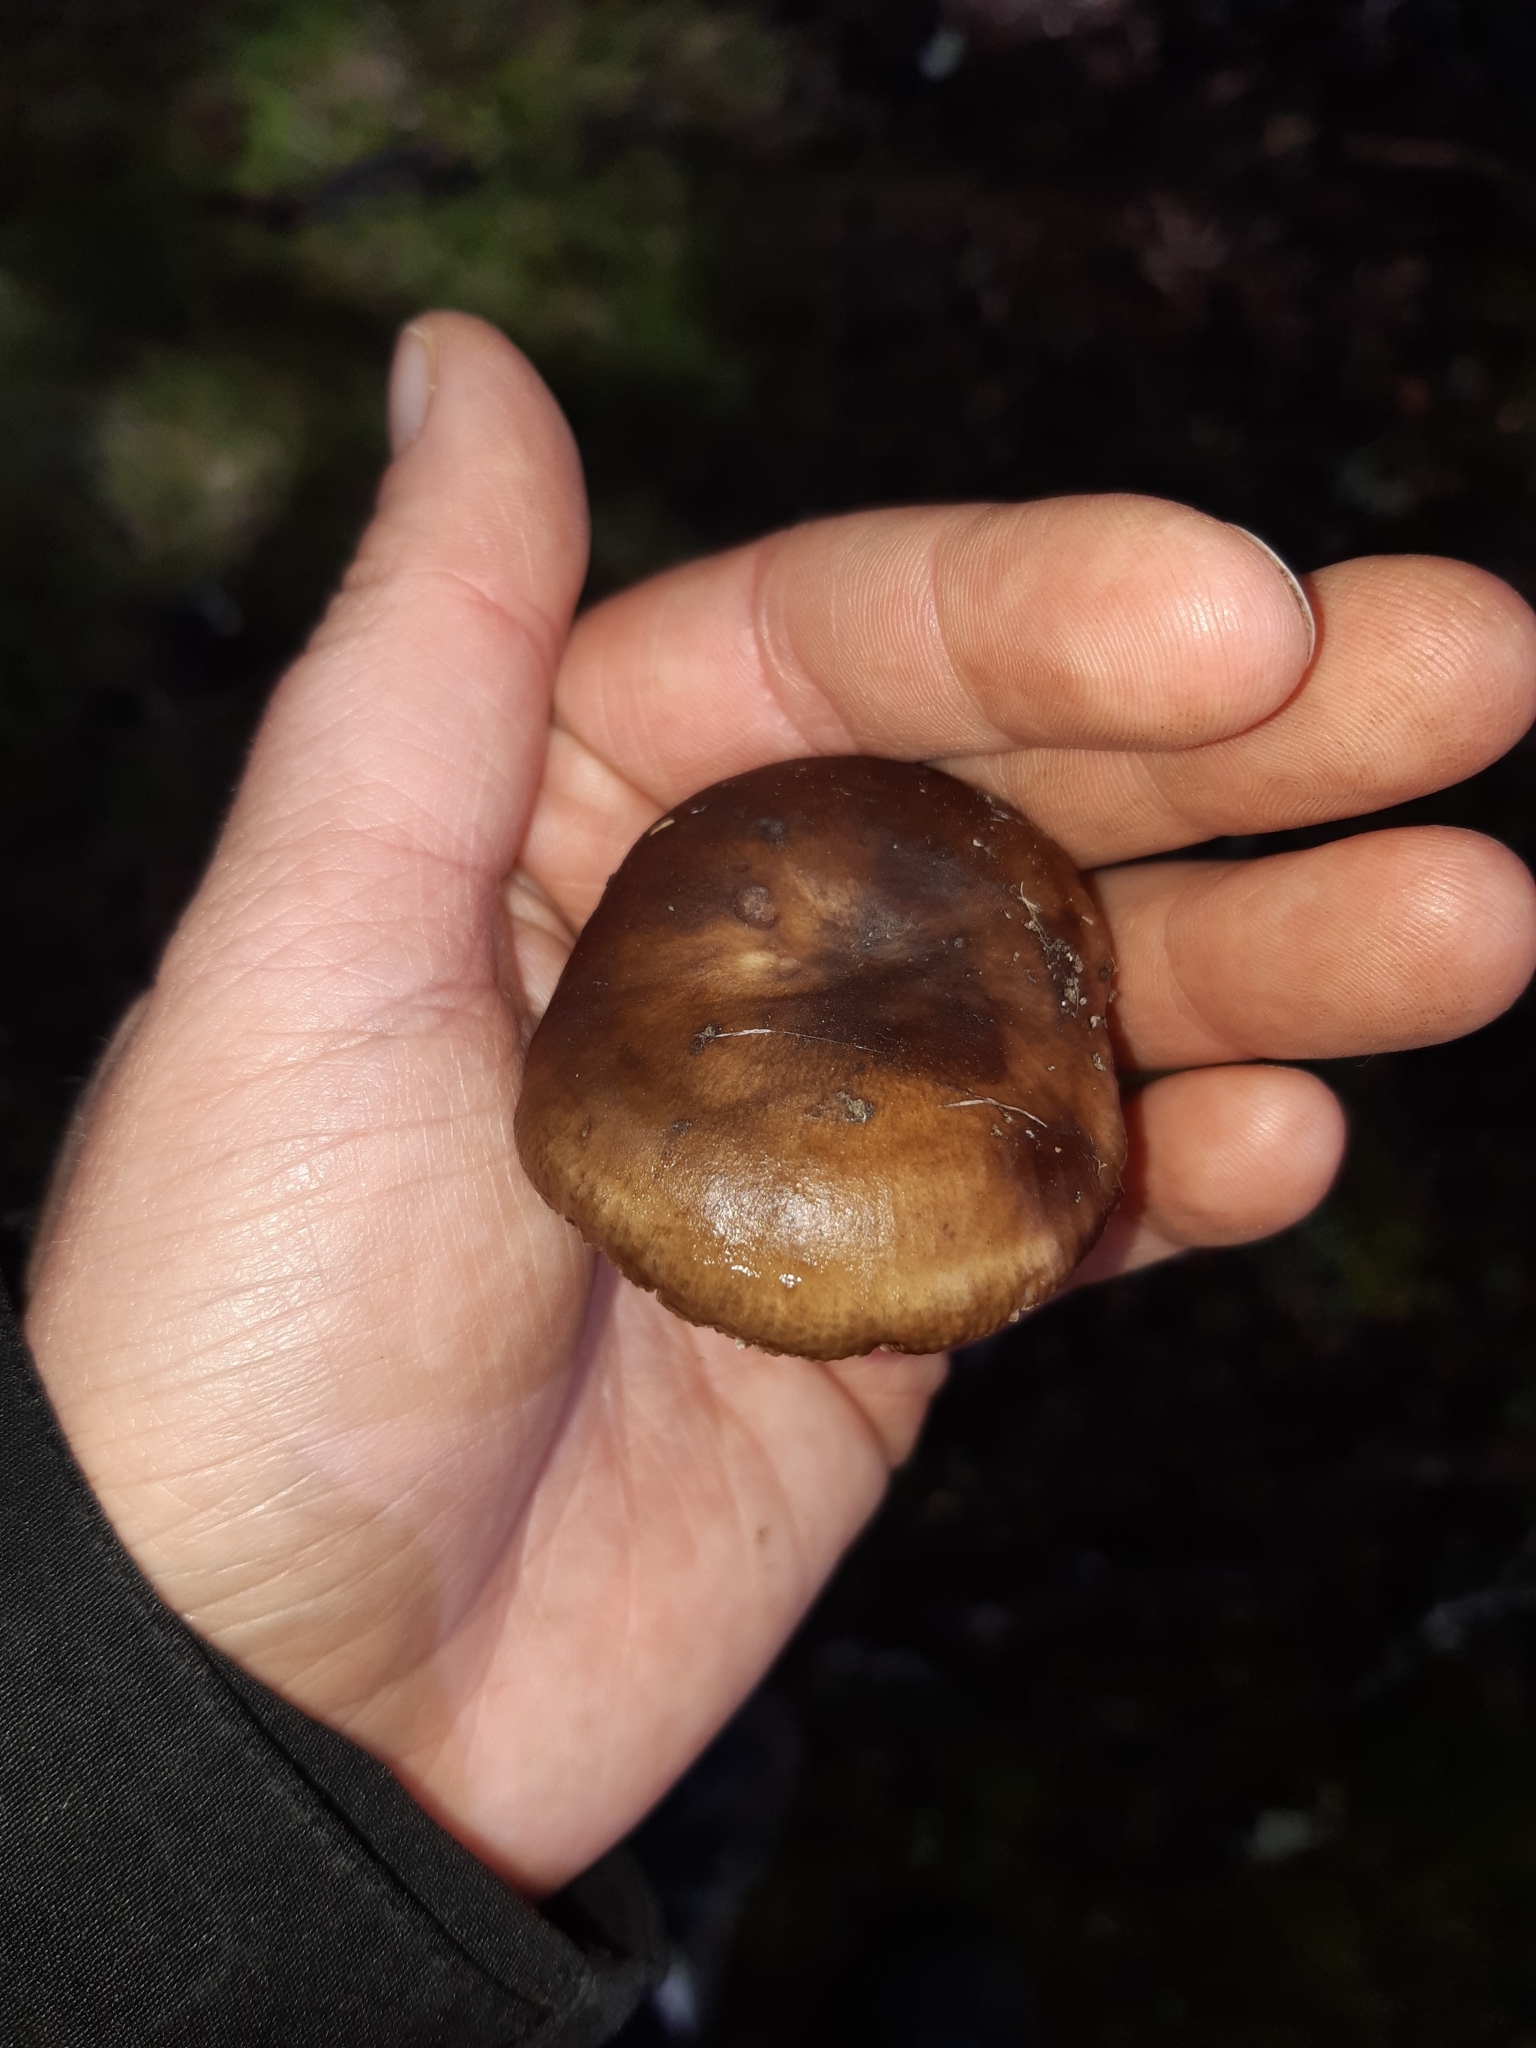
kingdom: Fungi
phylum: Basidiomycota
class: Agaricomycetes
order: Russulales
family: Russulaceae
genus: Russula
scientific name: Russula griseostipitata
